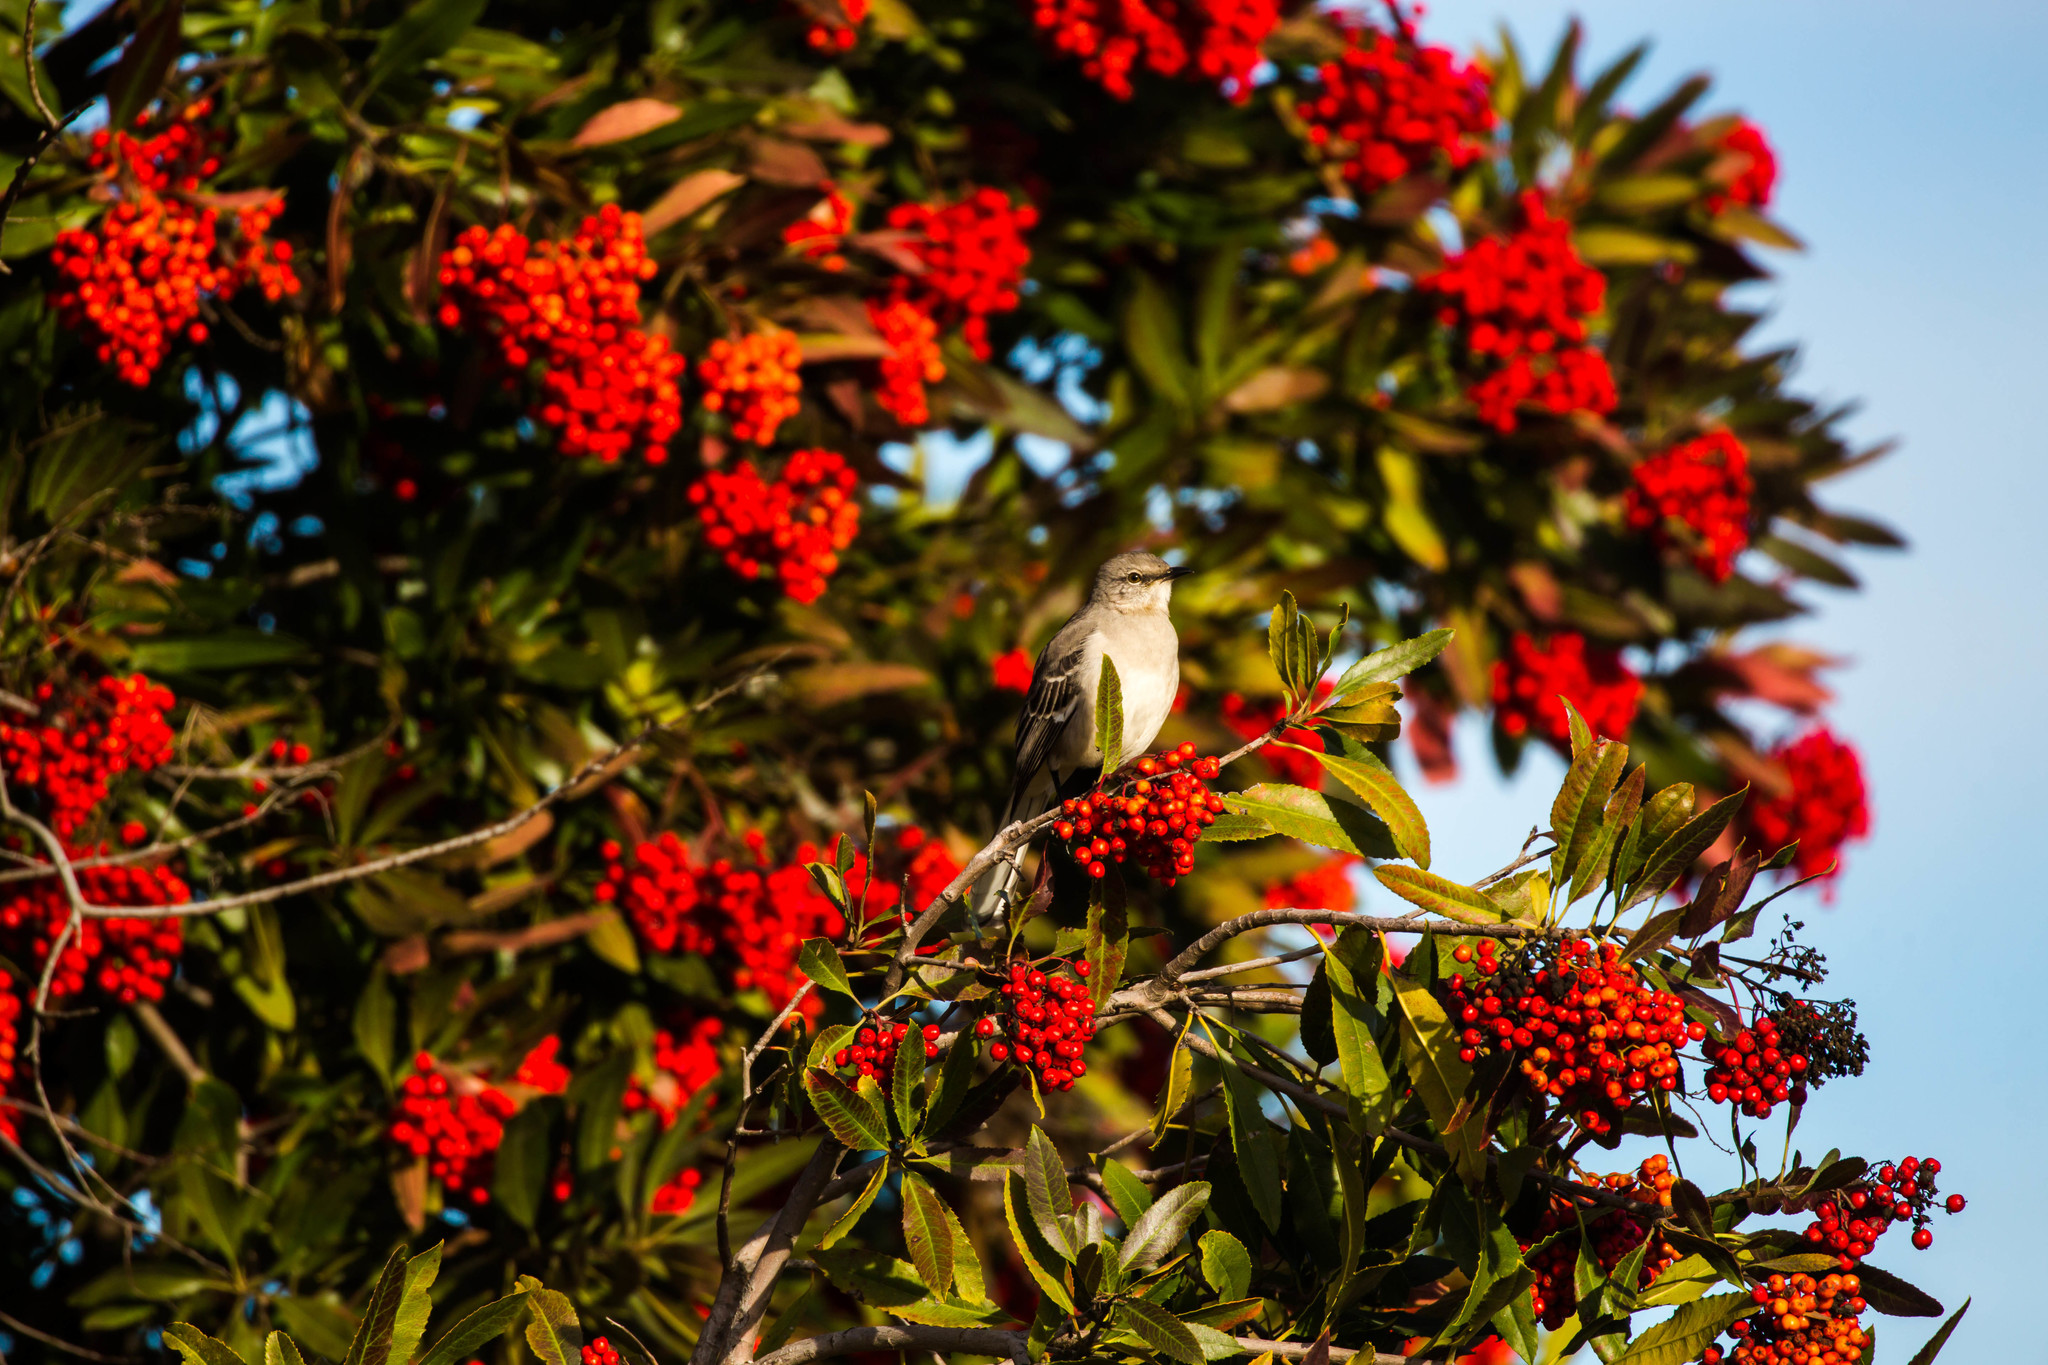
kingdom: Animalia
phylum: Chordata
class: Aves
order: Passeriformes
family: Mimidae
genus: Mimus
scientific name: Mimus polyglottos
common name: Northern mockingbird
